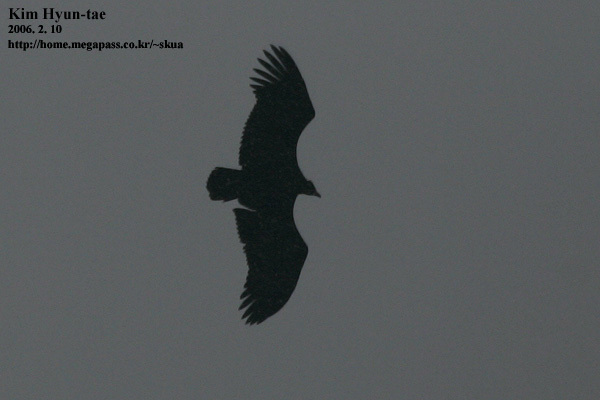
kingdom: Animalia
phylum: Chordata
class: Aves
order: Accipitriformes
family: Accipitridae
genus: Aegypius
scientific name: Aegypius monachus
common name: Cinereous vulture
